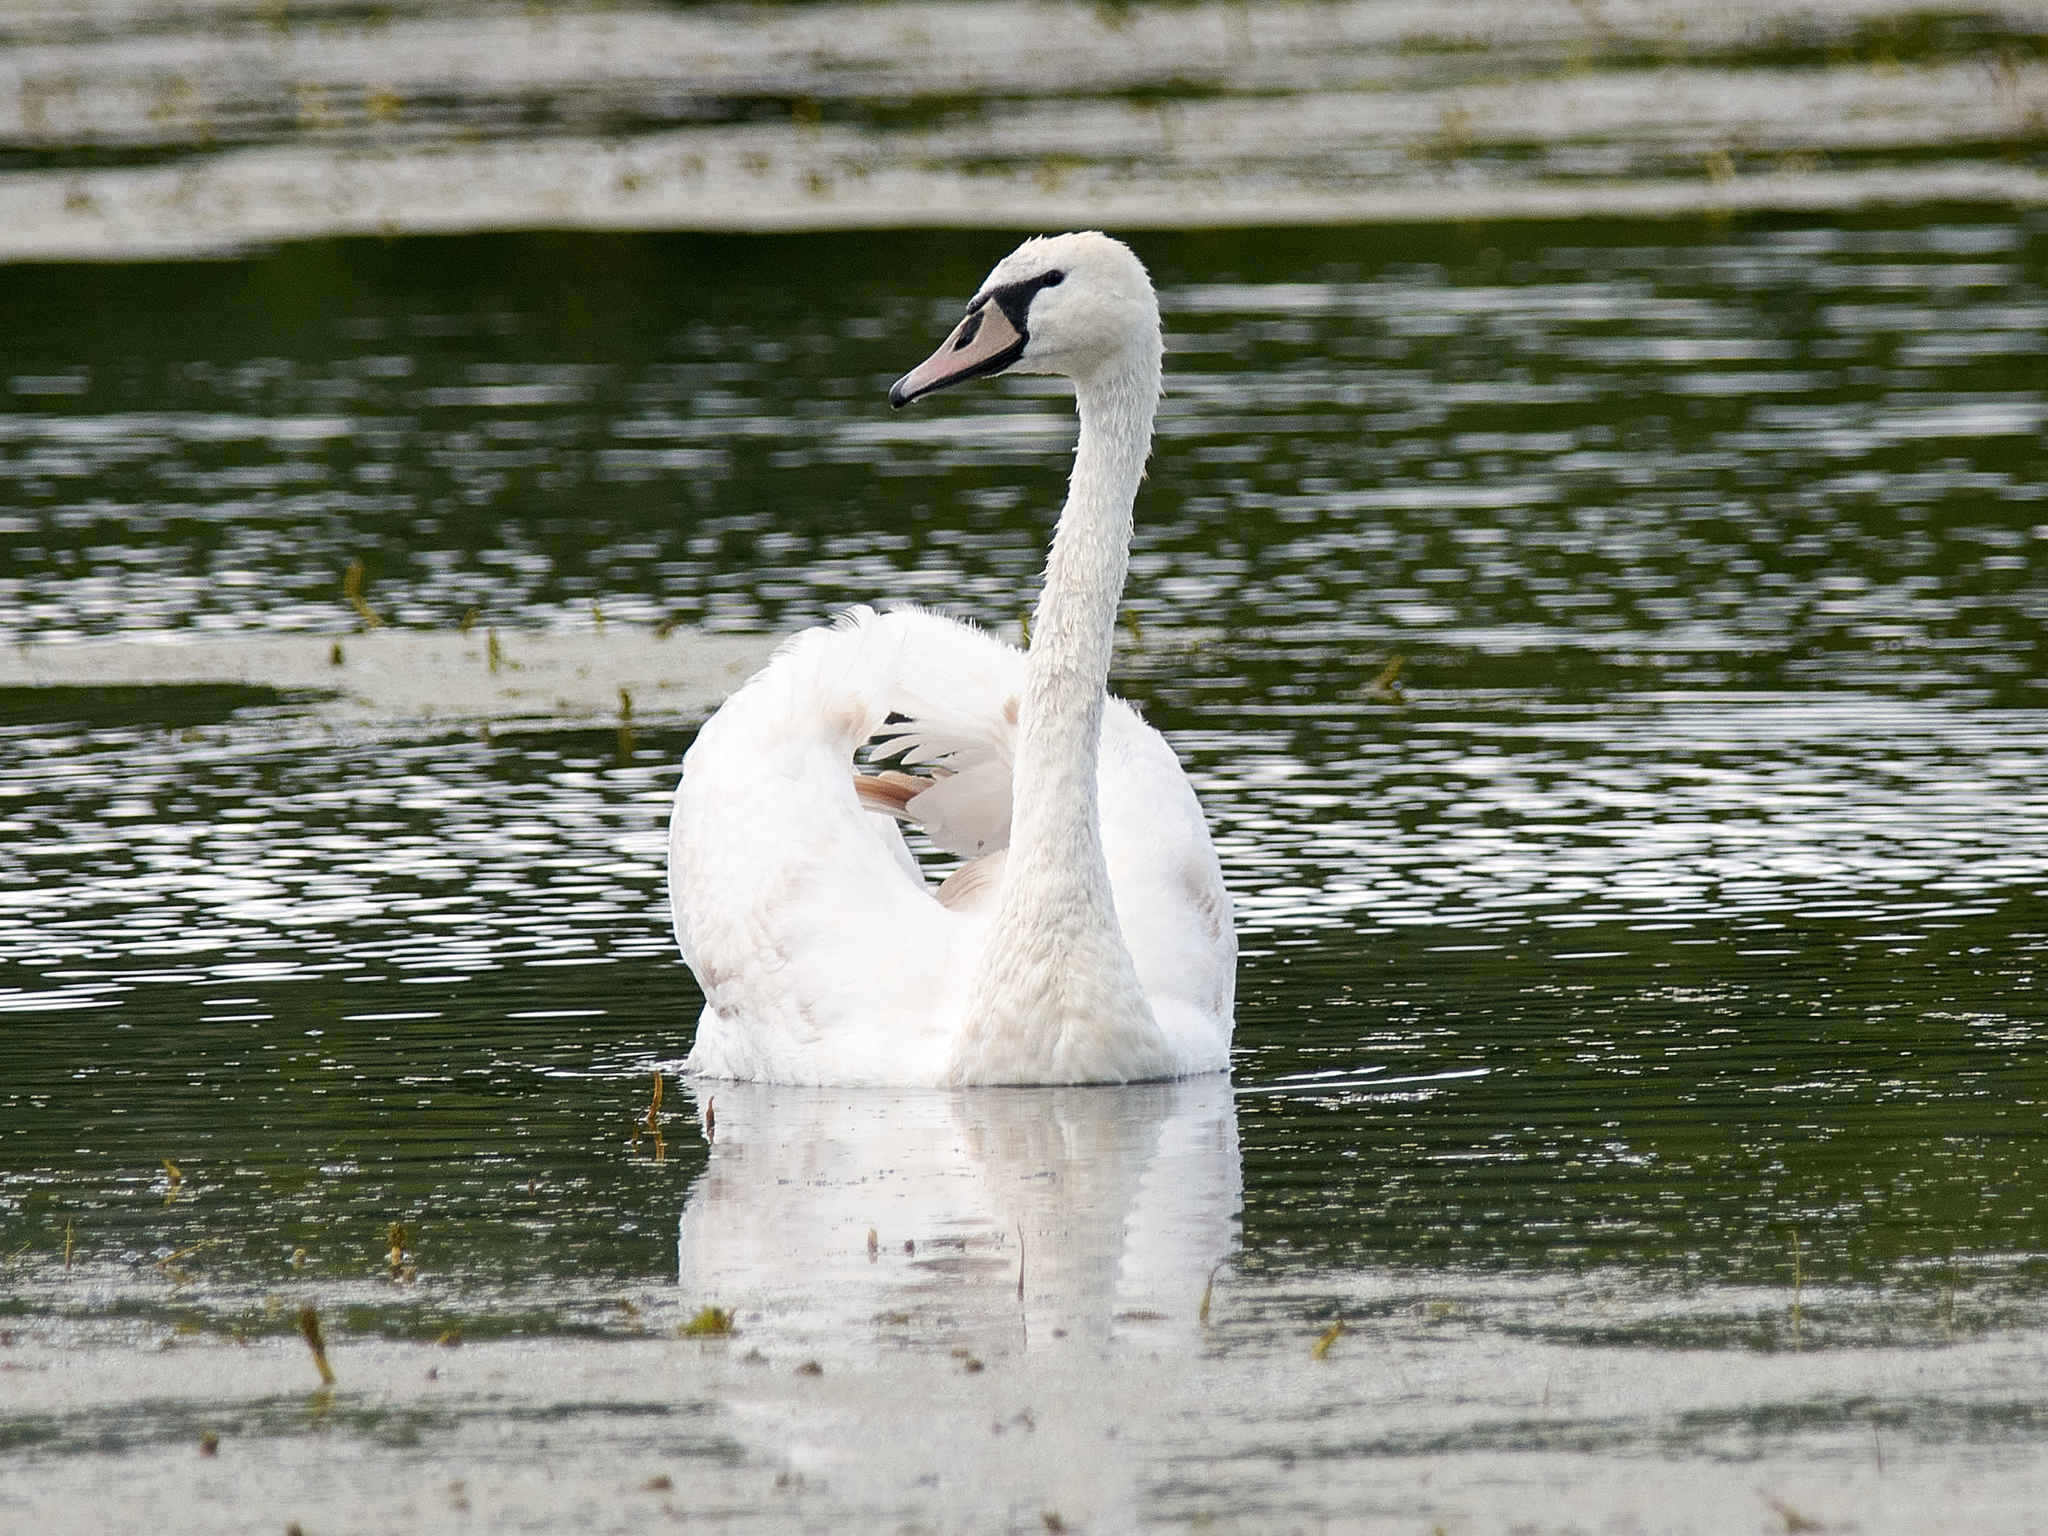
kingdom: Animalia
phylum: Chordata
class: Aves
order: Anseriformes
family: Anatidae
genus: Cygnus
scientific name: Cygnus olor
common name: Mute swan
